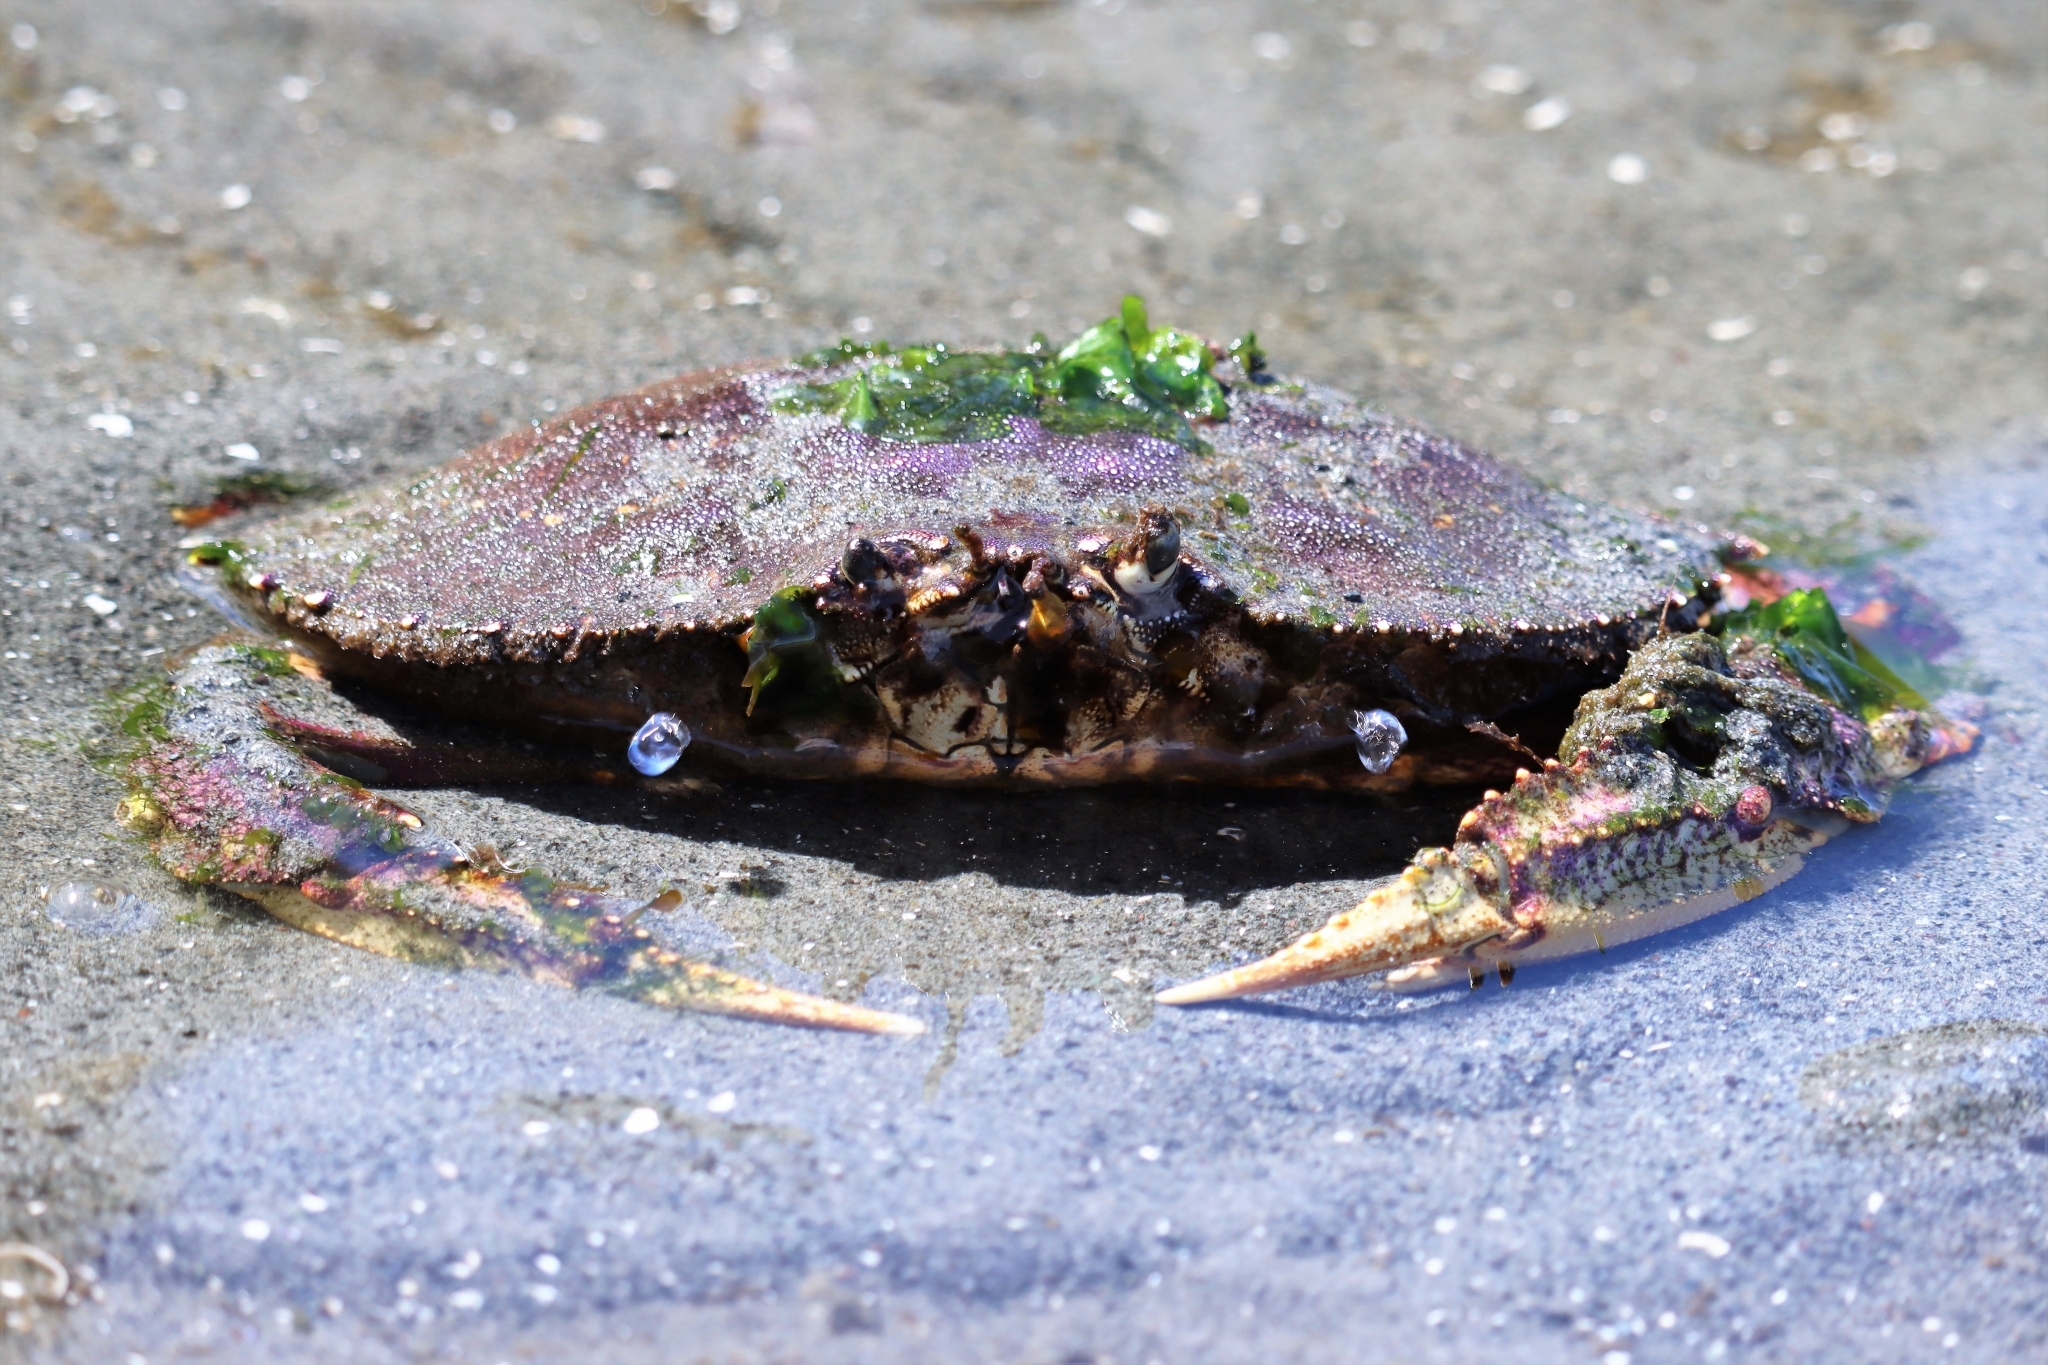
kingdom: Animalia
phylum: Arthropoda
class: Malacostraca
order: Decapoda
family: Cancridae
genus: Metacarcinus
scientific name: Metacarcinus magister
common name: Californian crab
